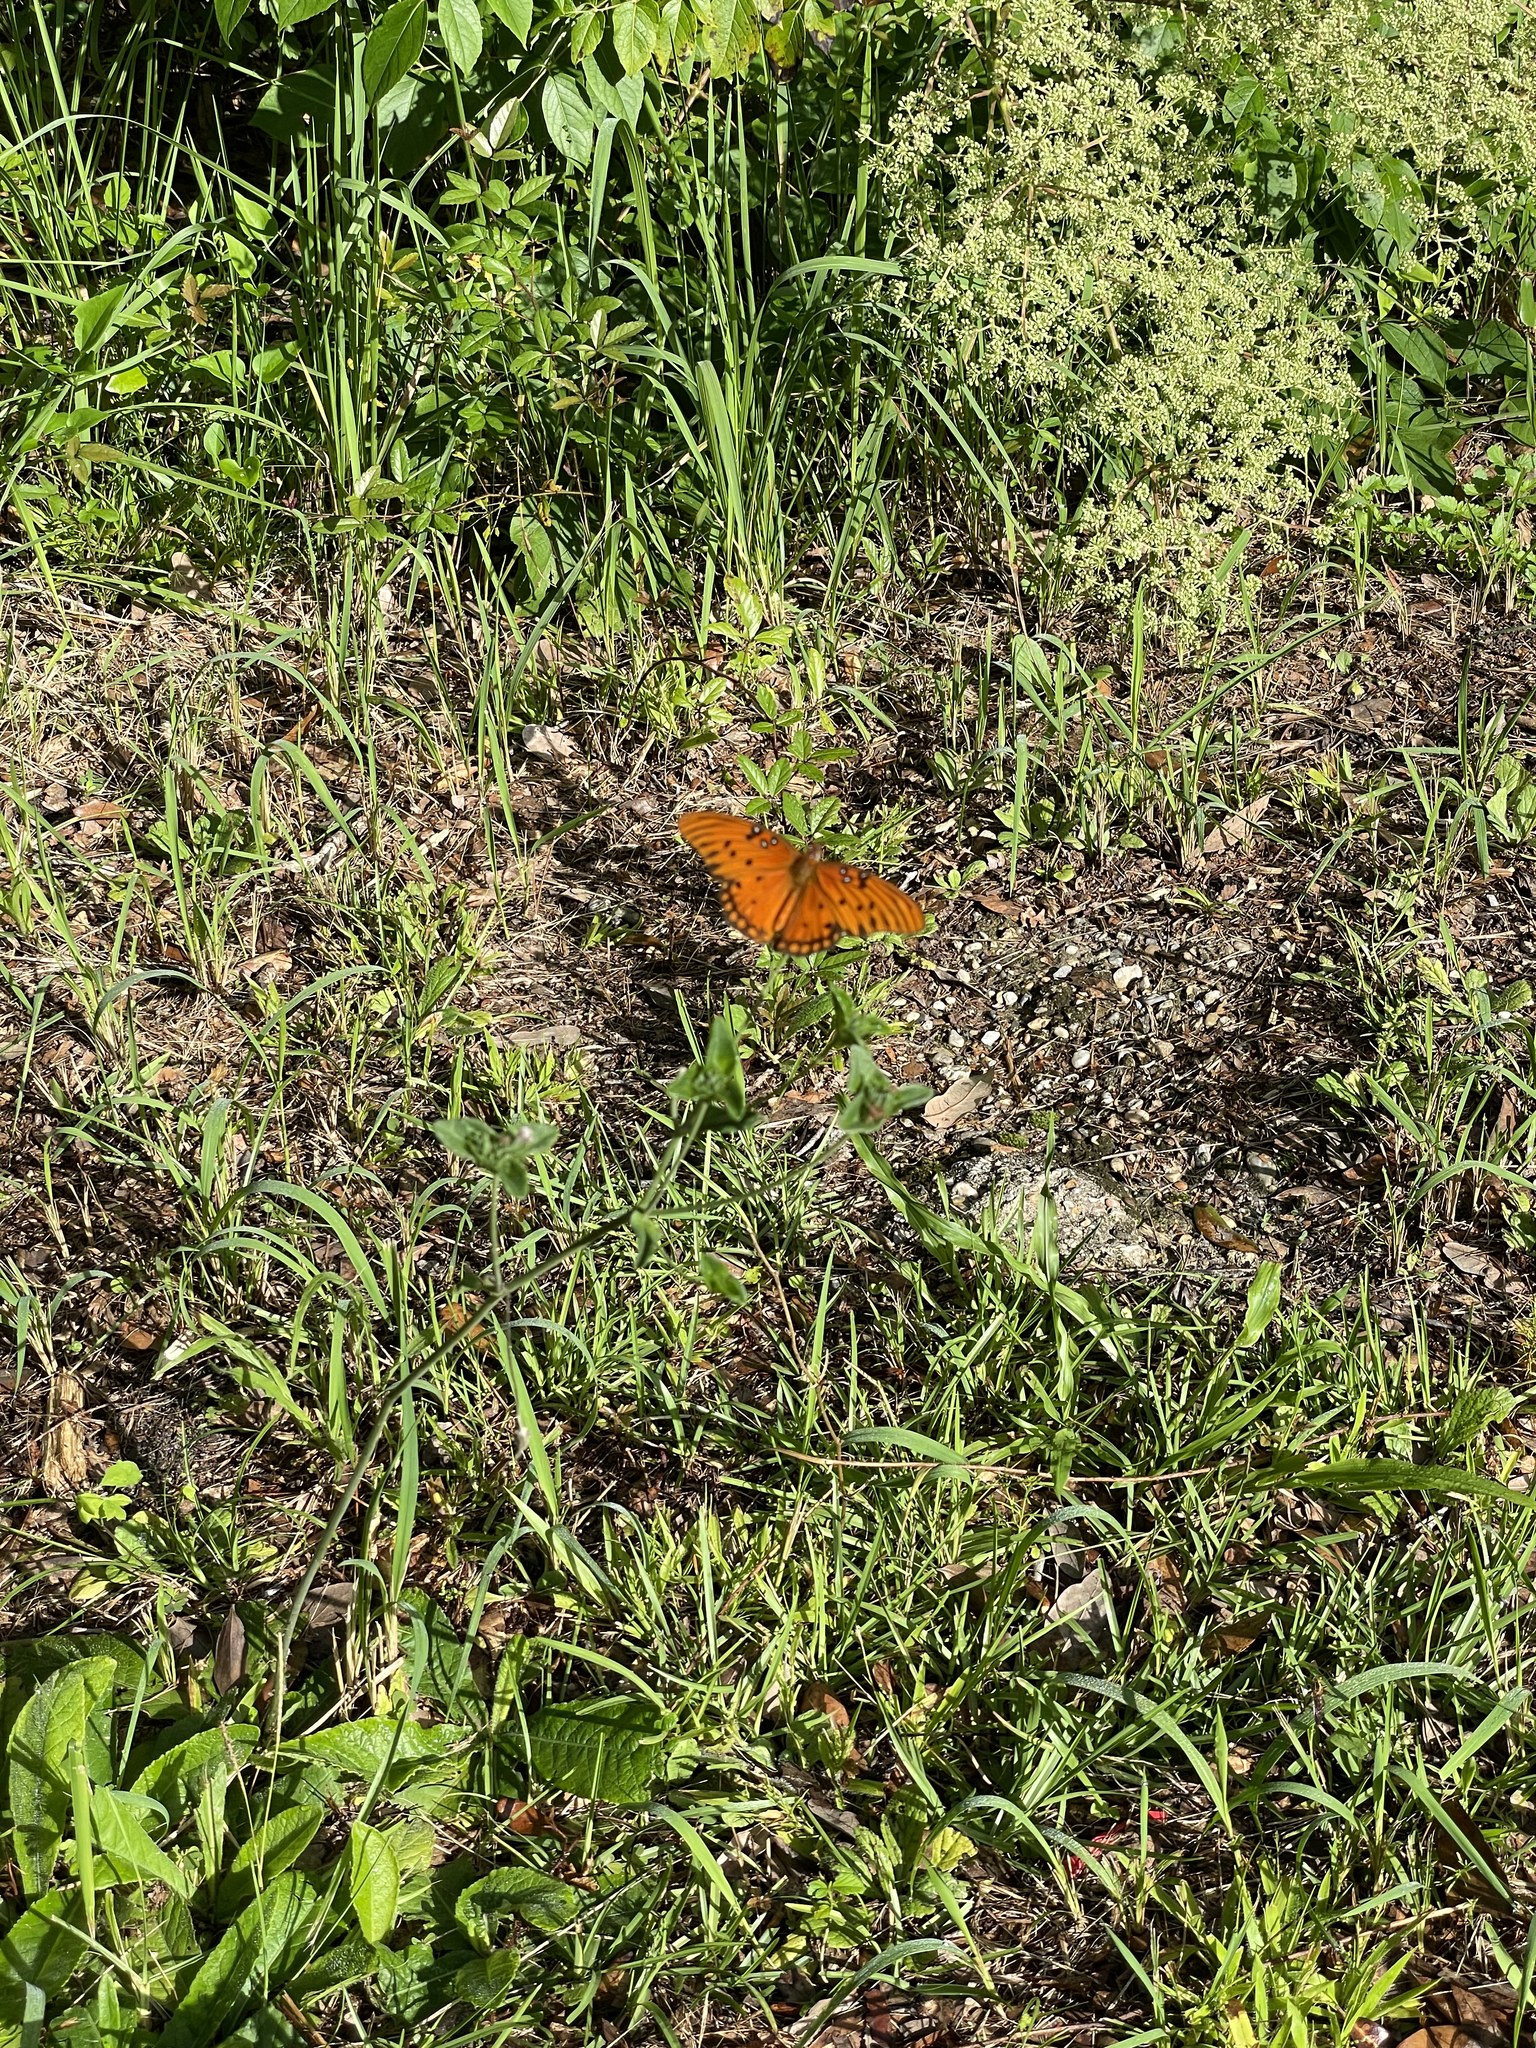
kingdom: Animalia
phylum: Arthropoda
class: Insecta
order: Lepidoptera
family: Nymphalidae
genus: Dione
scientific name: Dione vanillae
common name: Gulf fritillary
